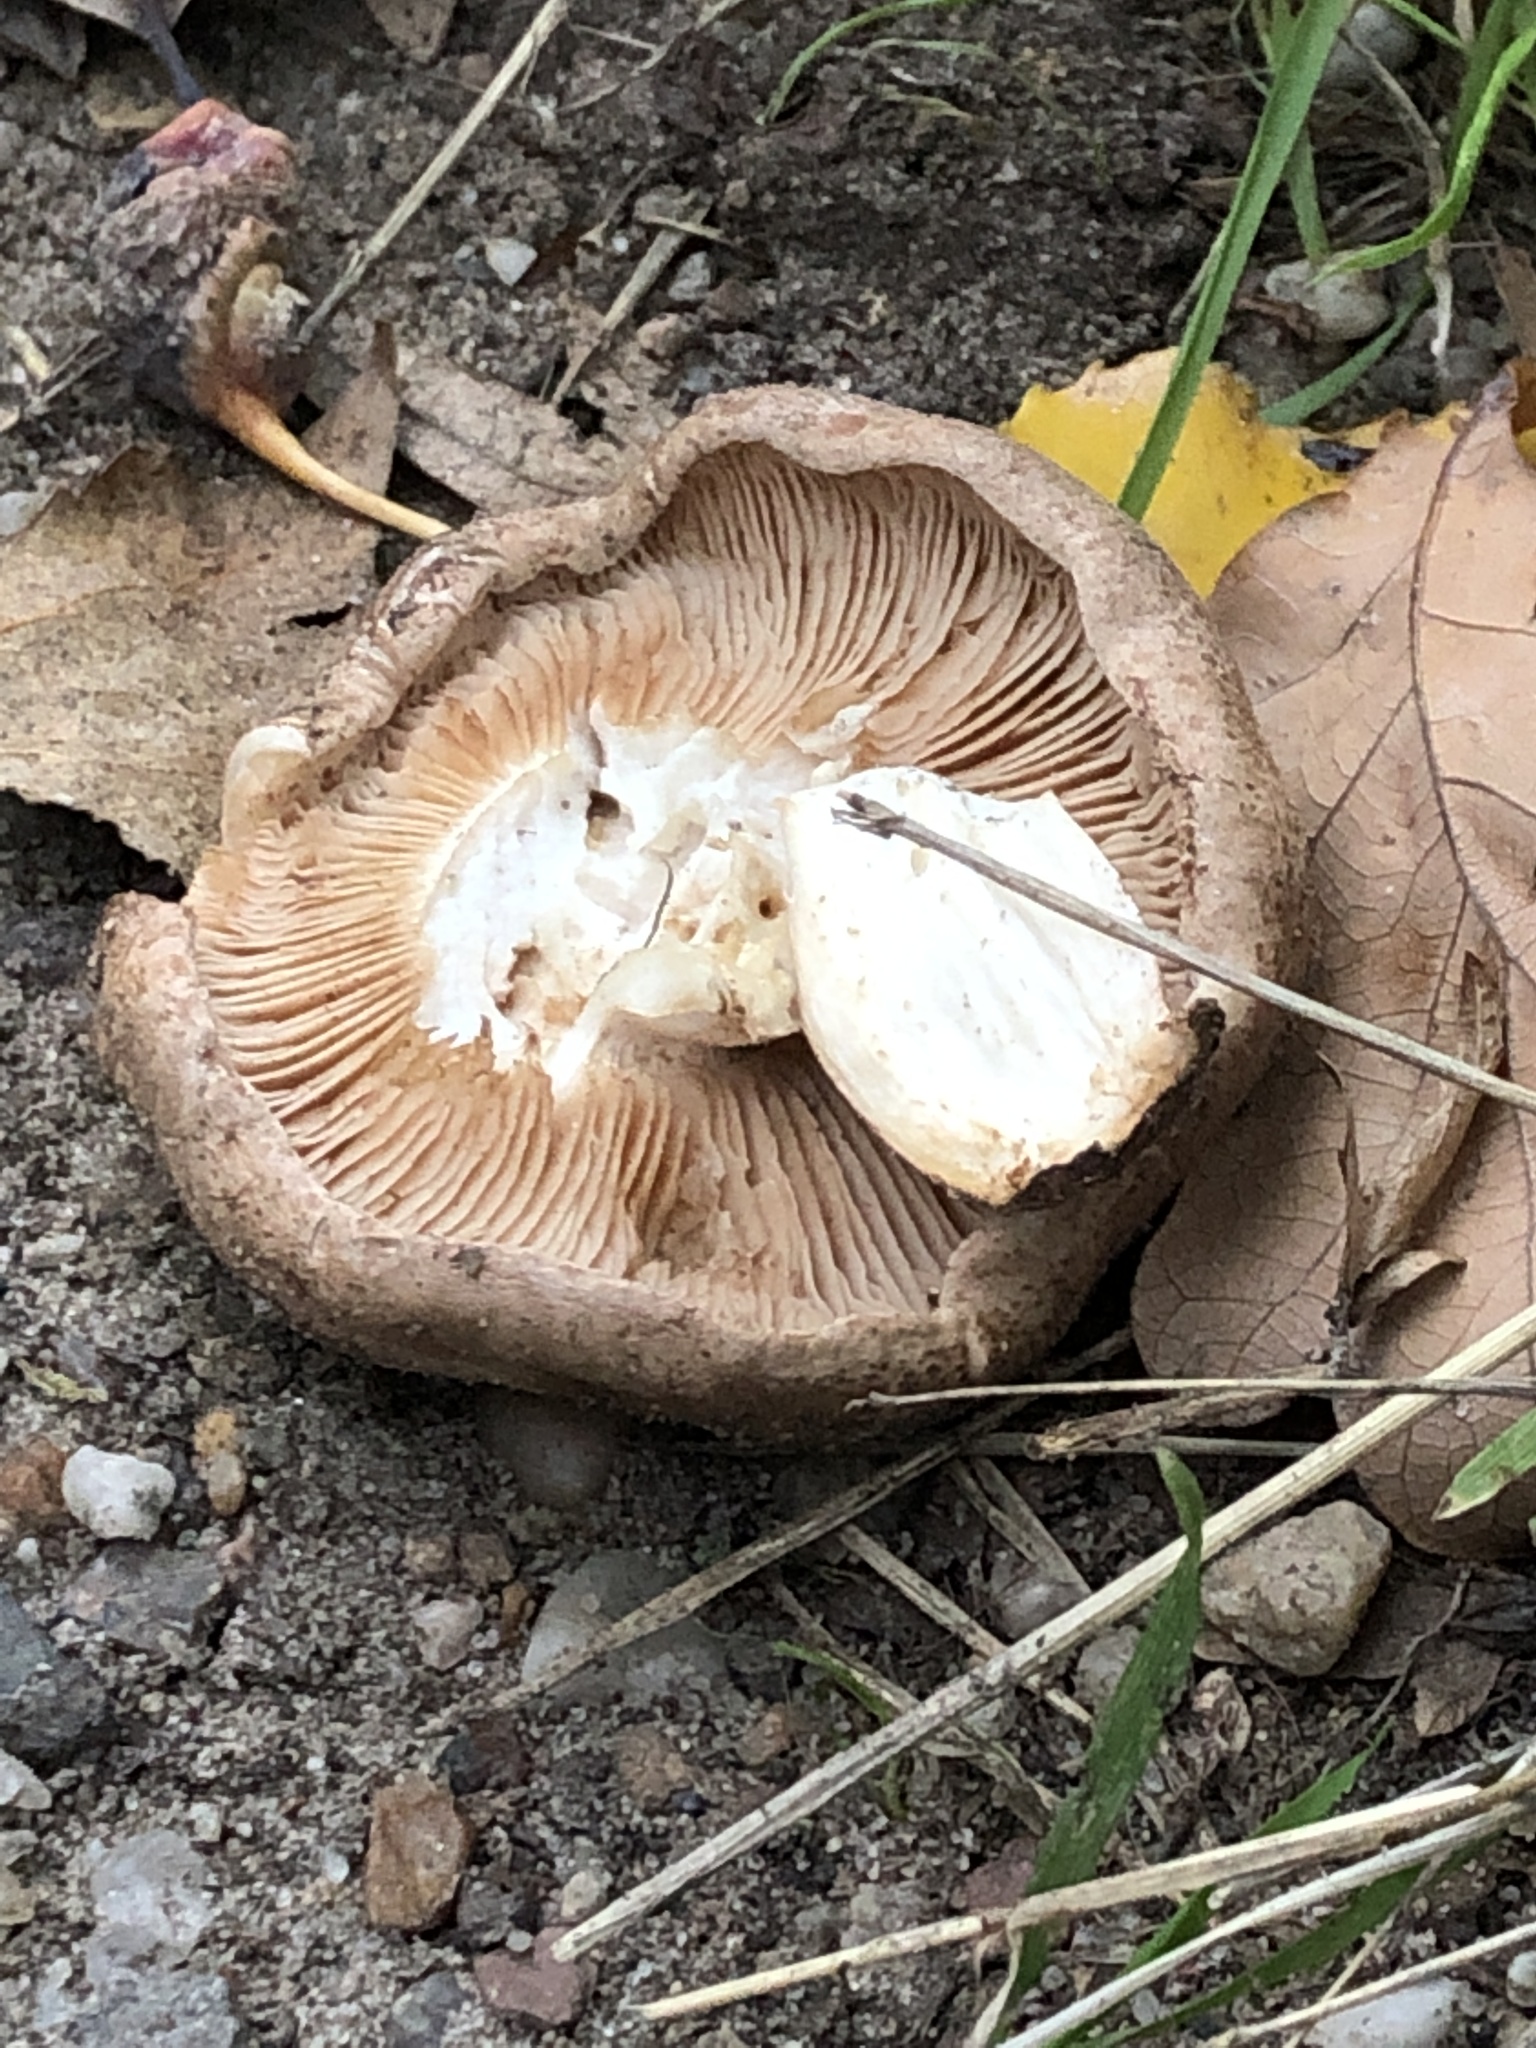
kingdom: Fungi
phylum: Basidiomycota
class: Agaricomycetes
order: Boletales
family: Paxillaceae
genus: Paxillus
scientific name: Paxillus involutus
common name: Brown roll rim
